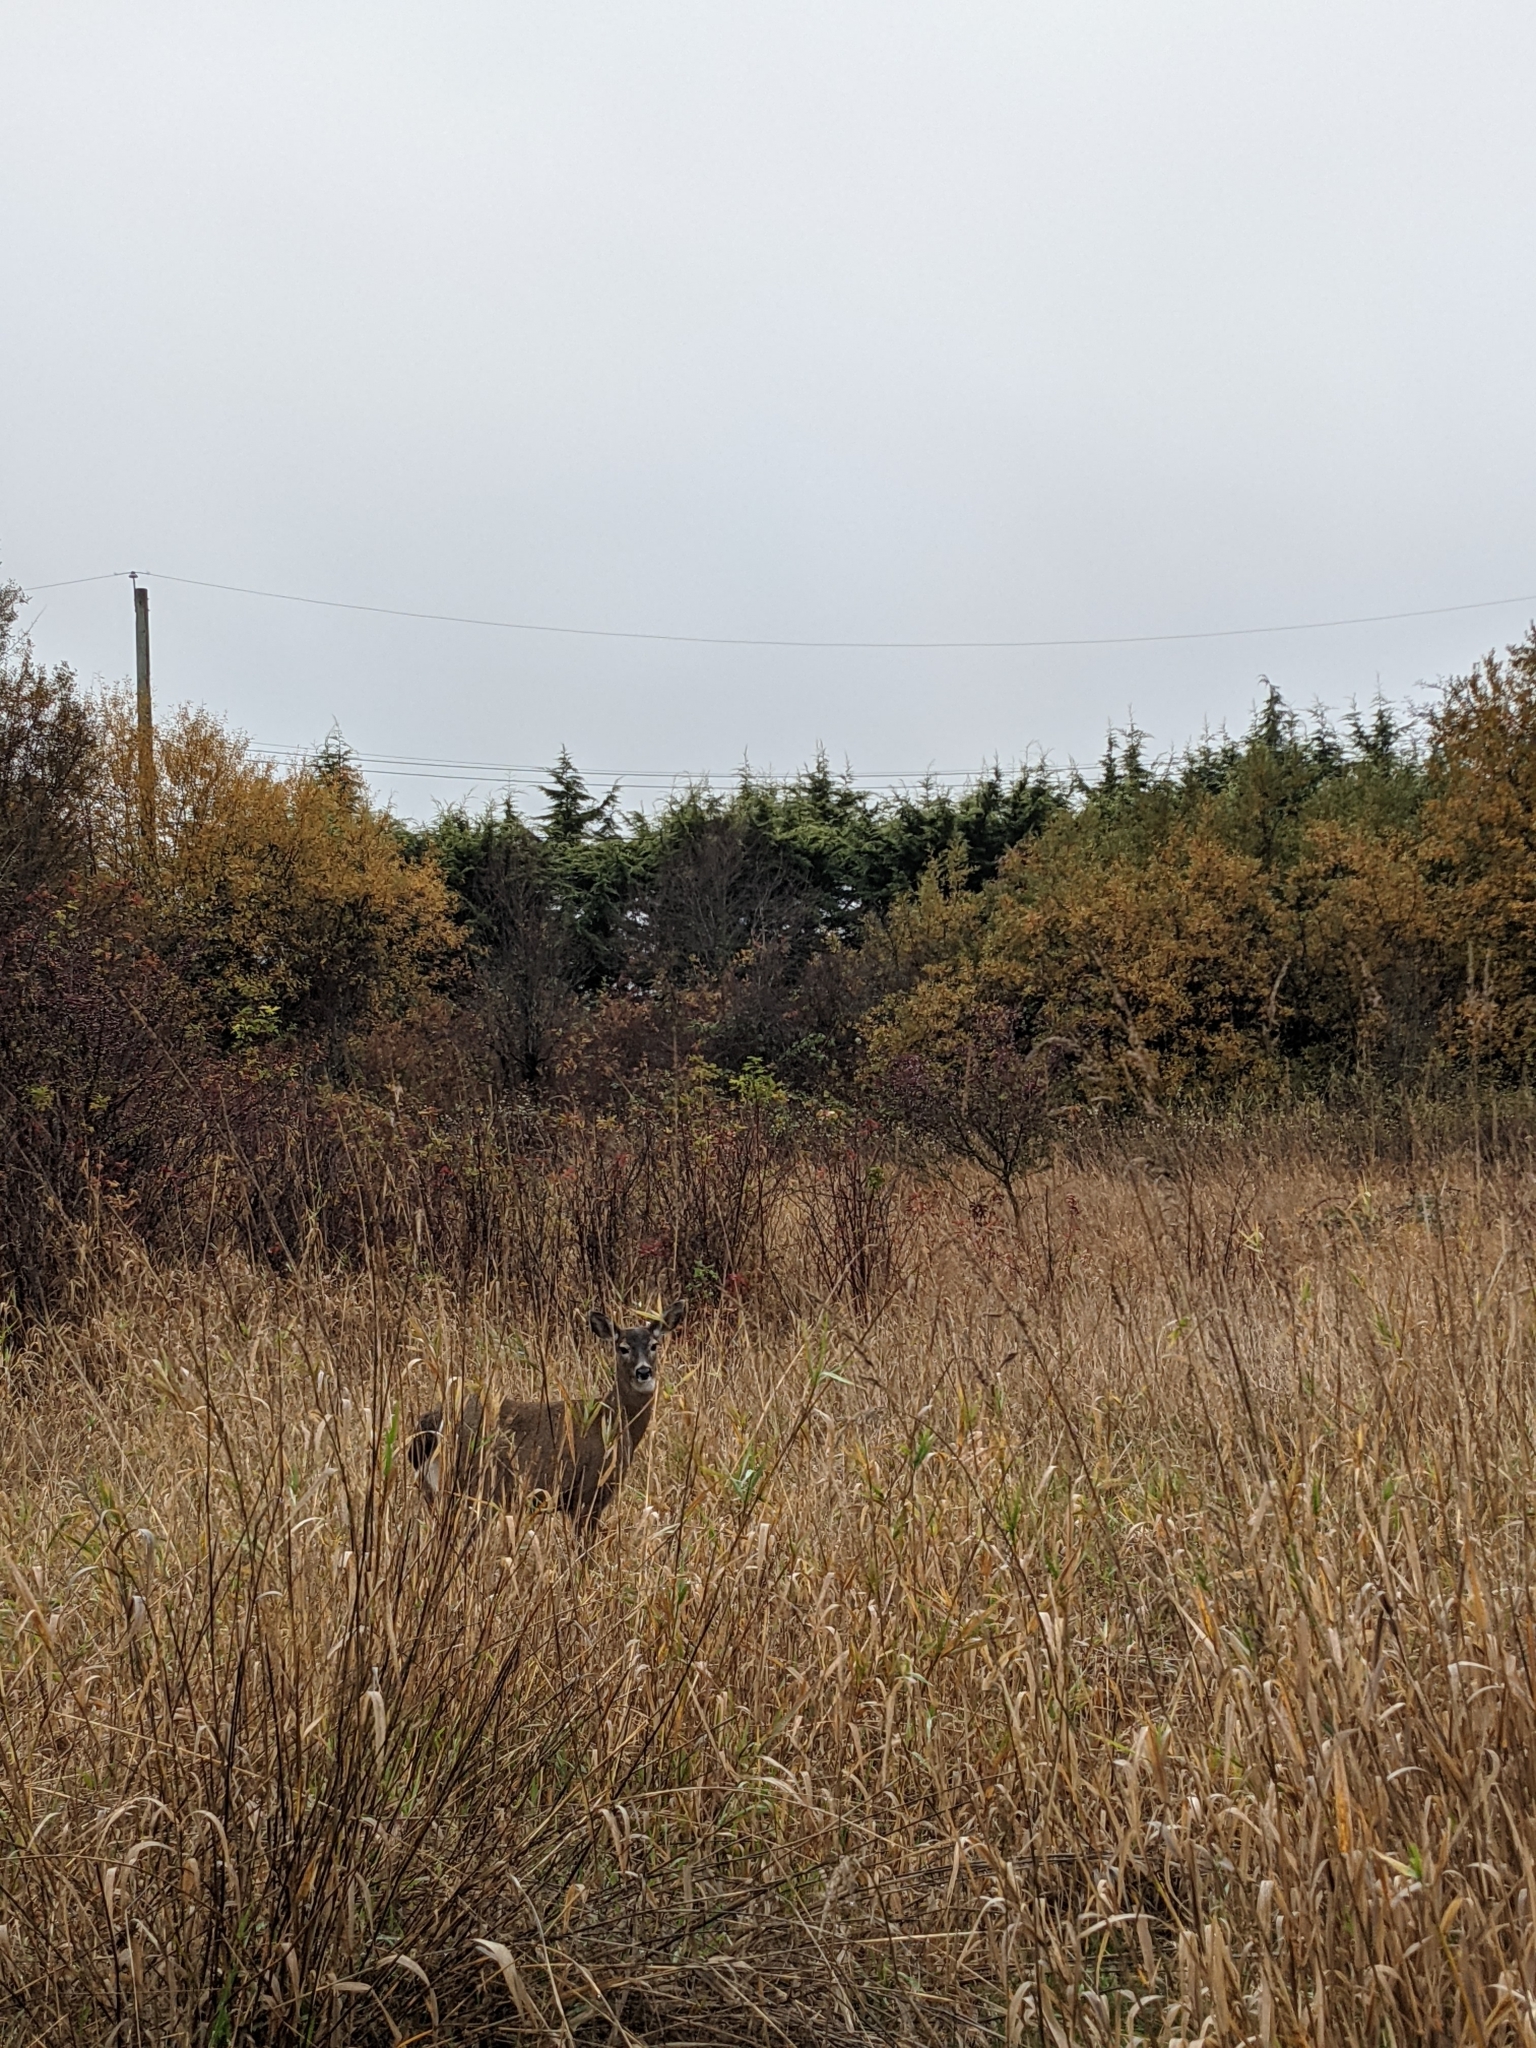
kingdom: Animalia
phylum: Chordata
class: Mammalia
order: Artiodactyla
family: Cervidae
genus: Odocoileus
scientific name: Odocoileus hemionus
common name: Mule deer
